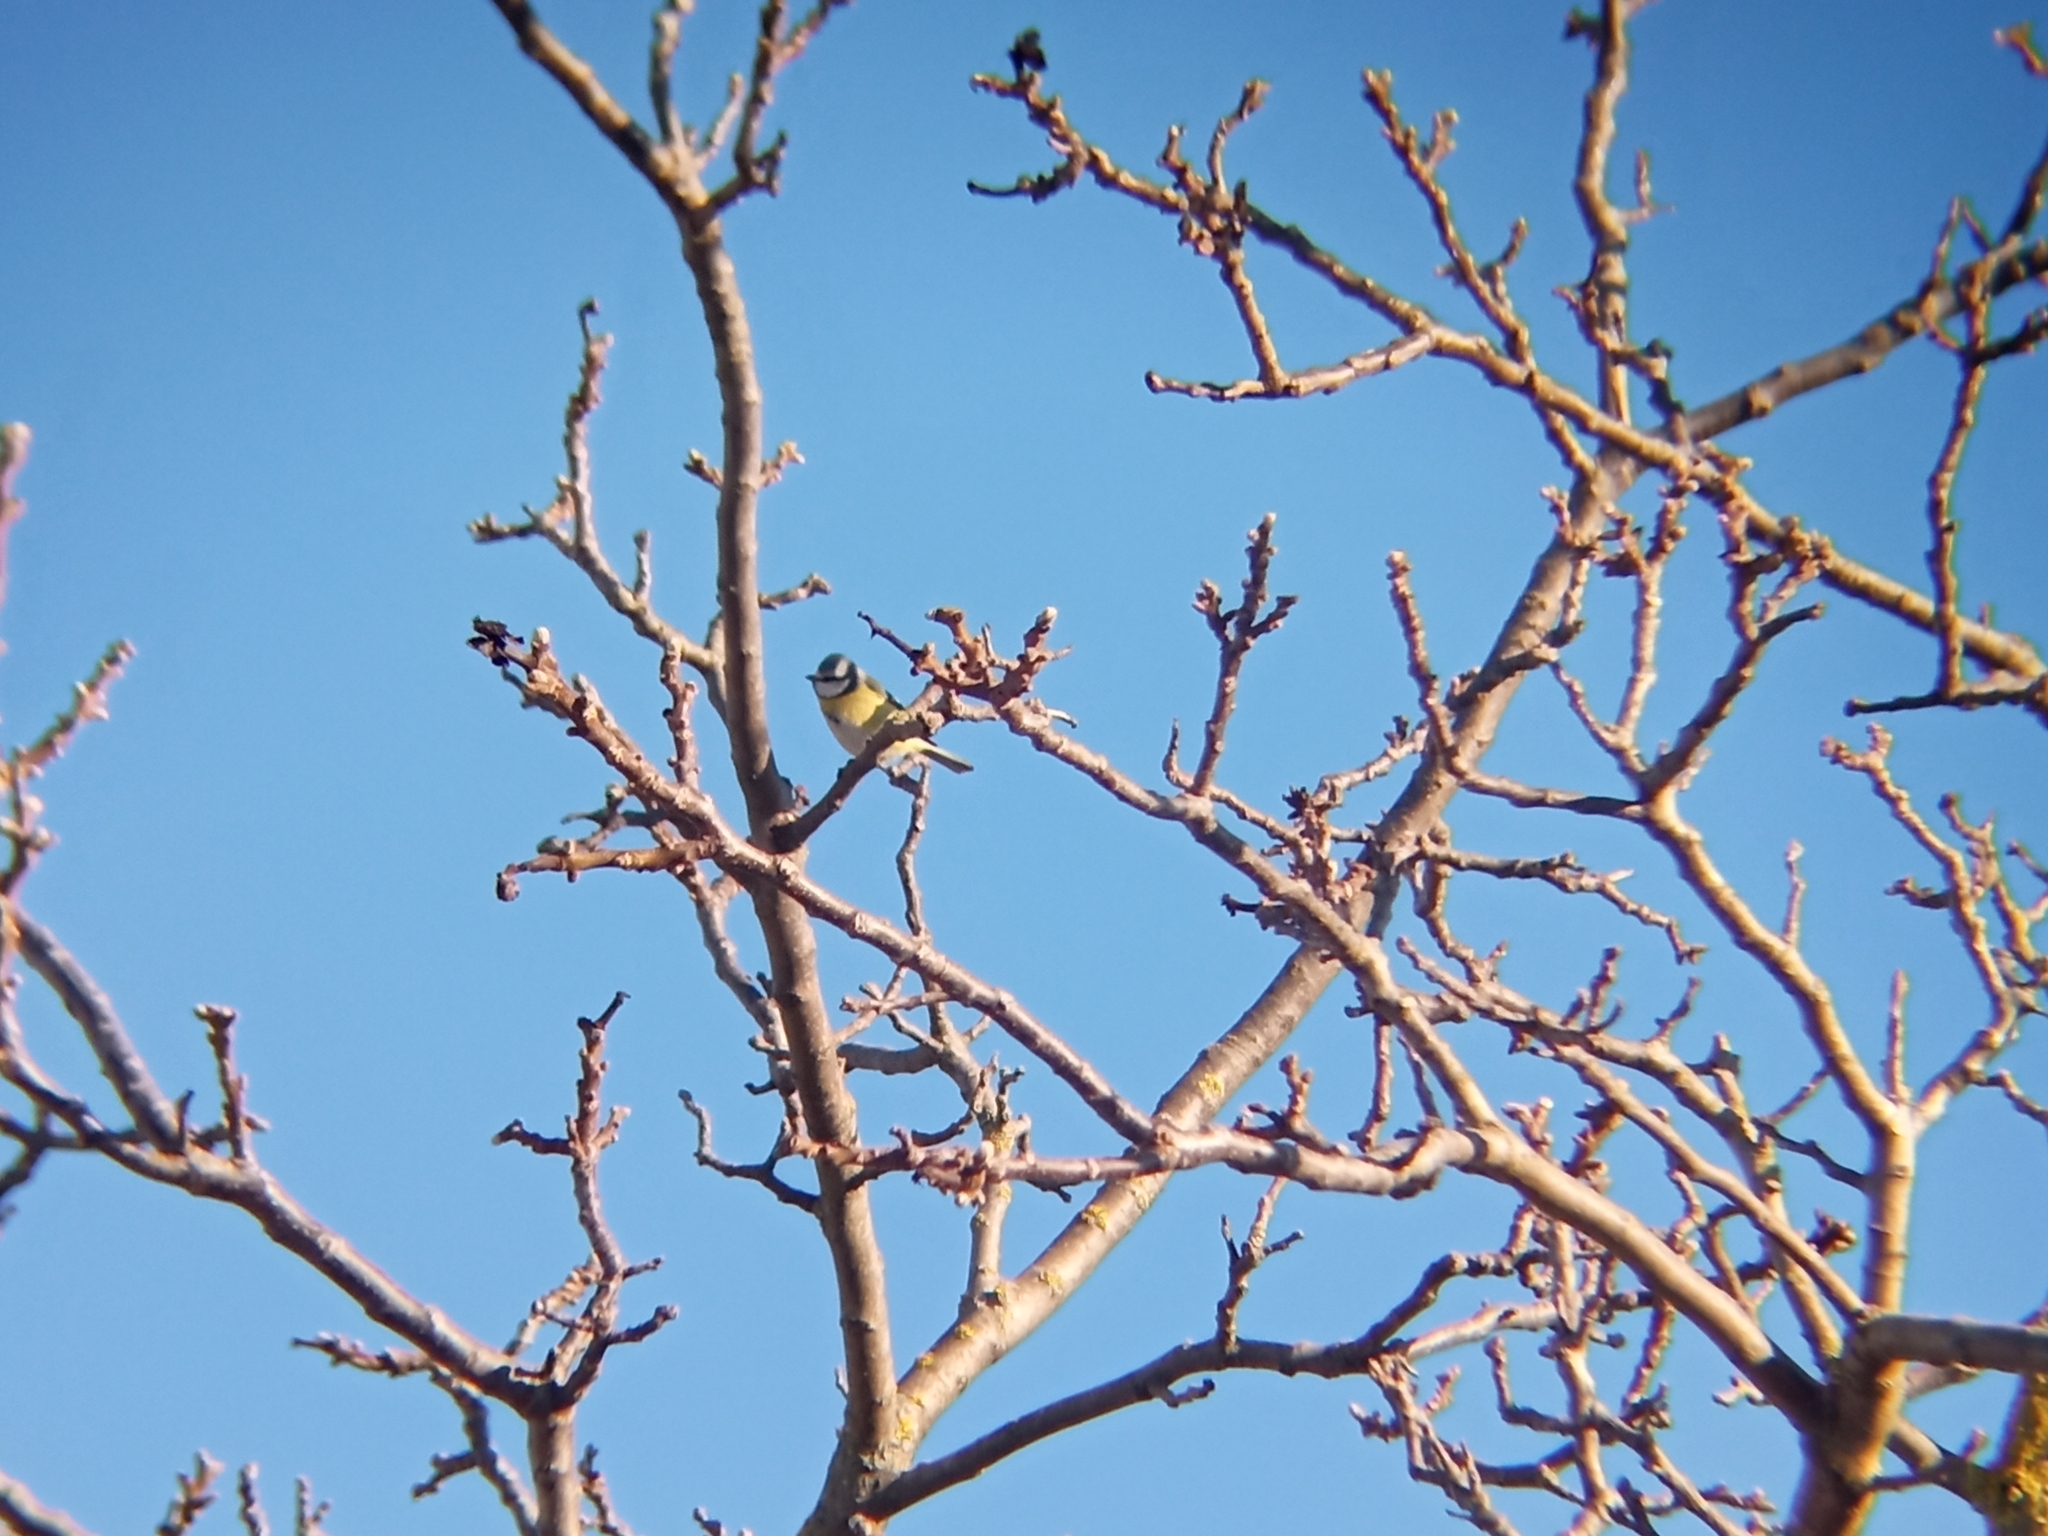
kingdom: Animalia
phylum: Chordata
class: Aves
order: Passeriformes
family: Paridae
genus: Cyanistes
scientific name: Cyanistes caeruleus
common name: Eurasian blue tit
